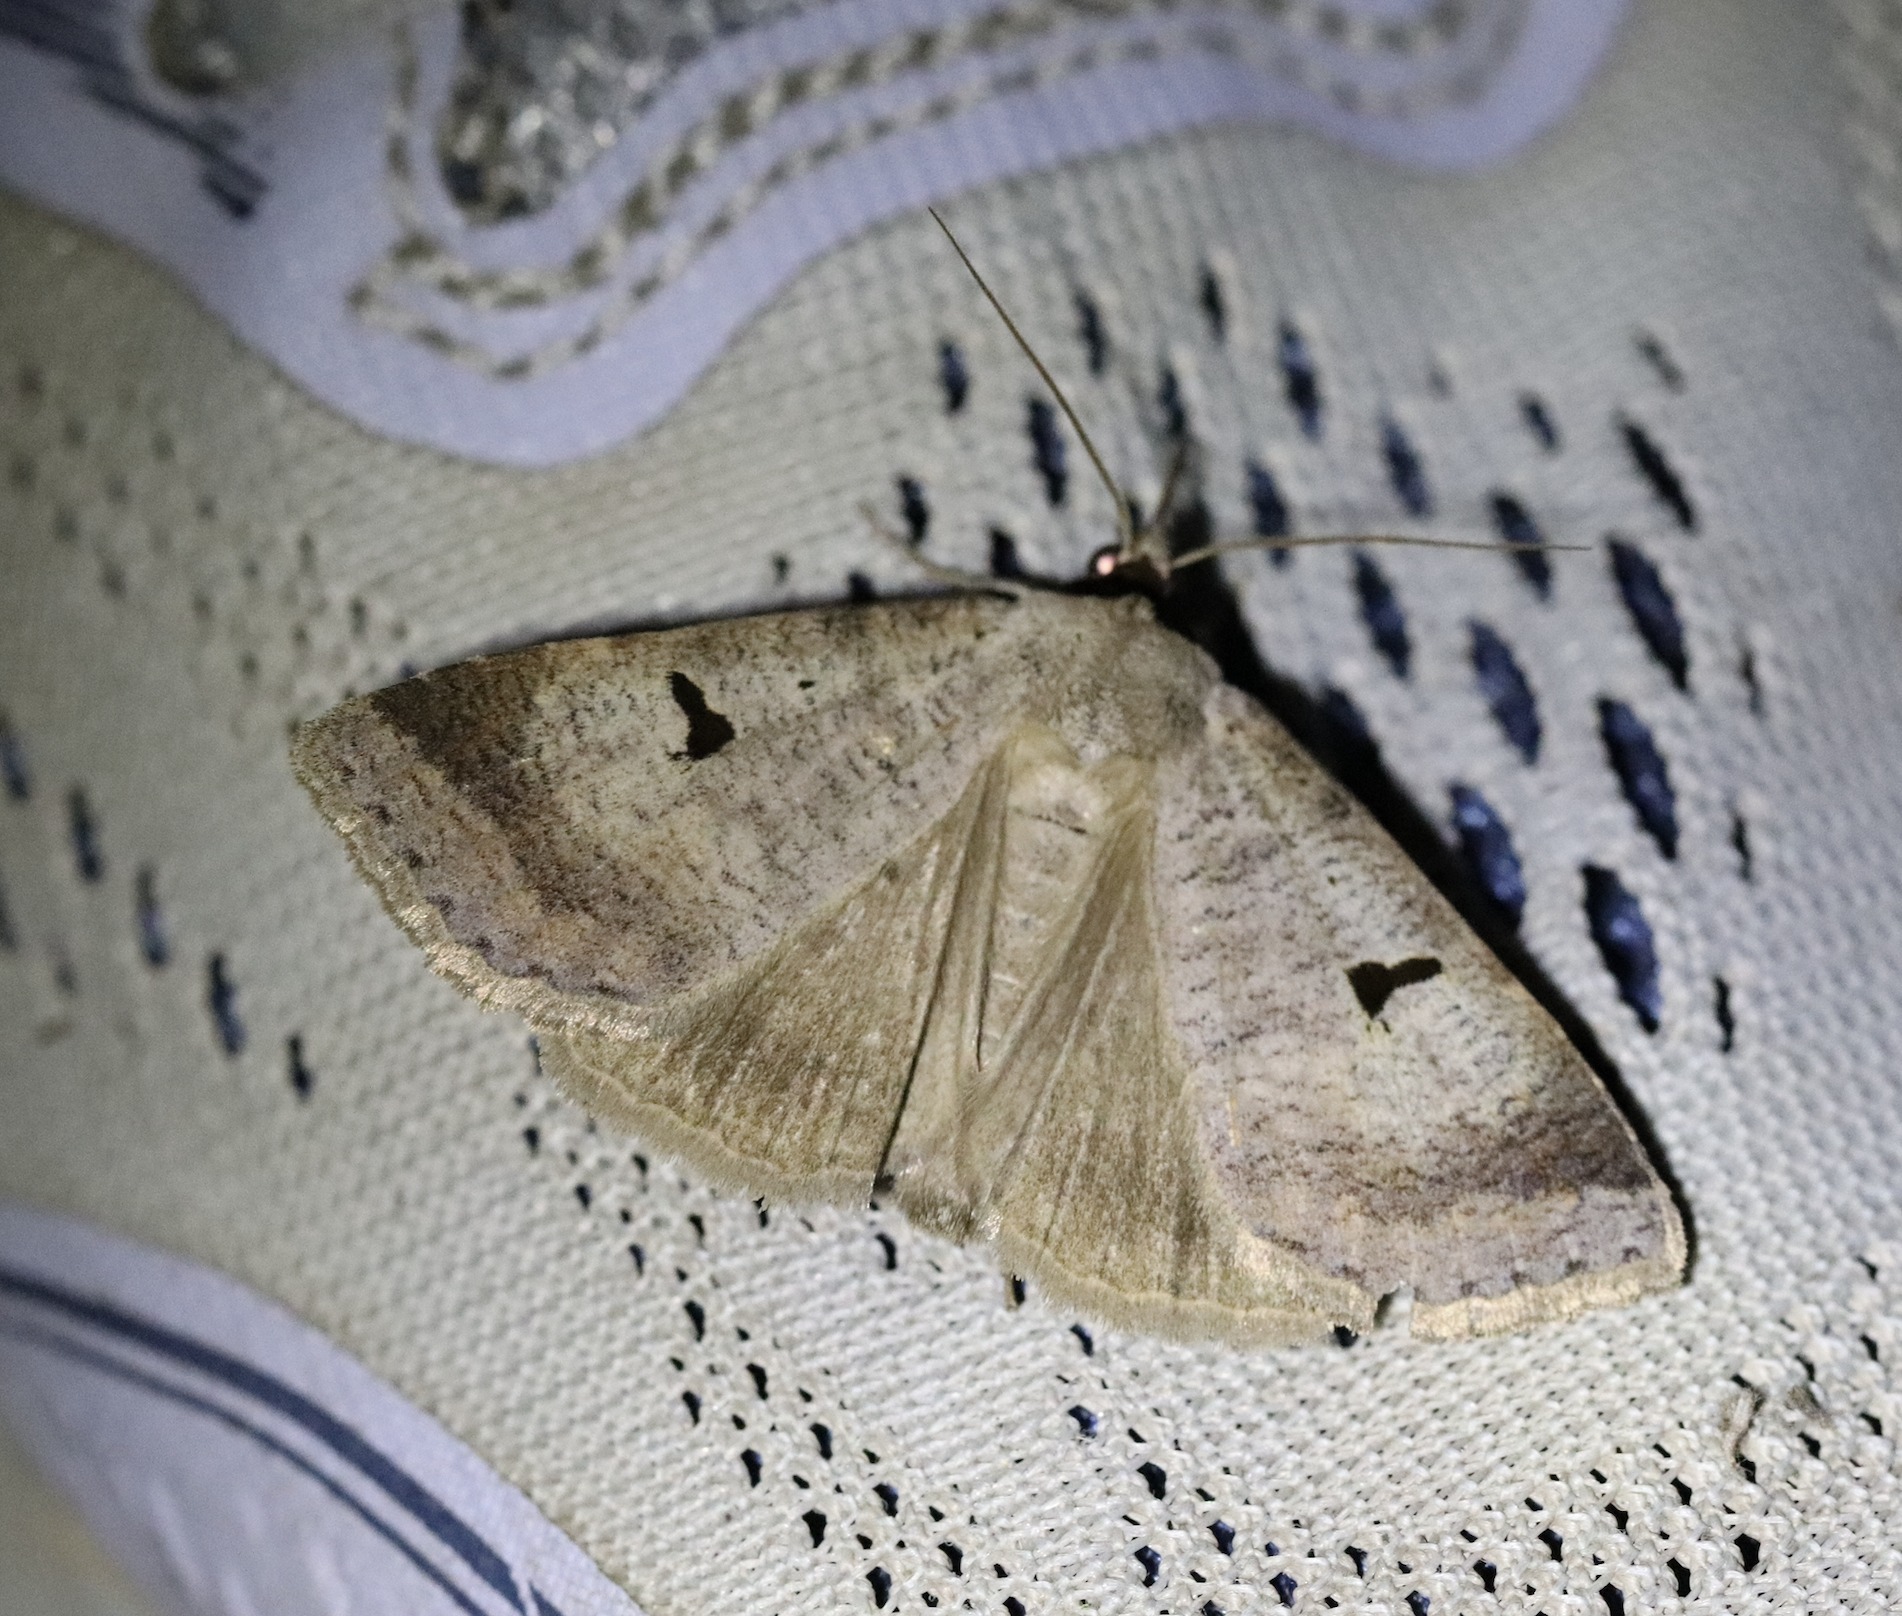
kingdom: Animalia
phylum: Arthropoda
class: Insecta
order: Lepidoptera
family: Erebidae
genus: Lygephila
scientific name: Lygephila pastinum
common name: Blackneck
